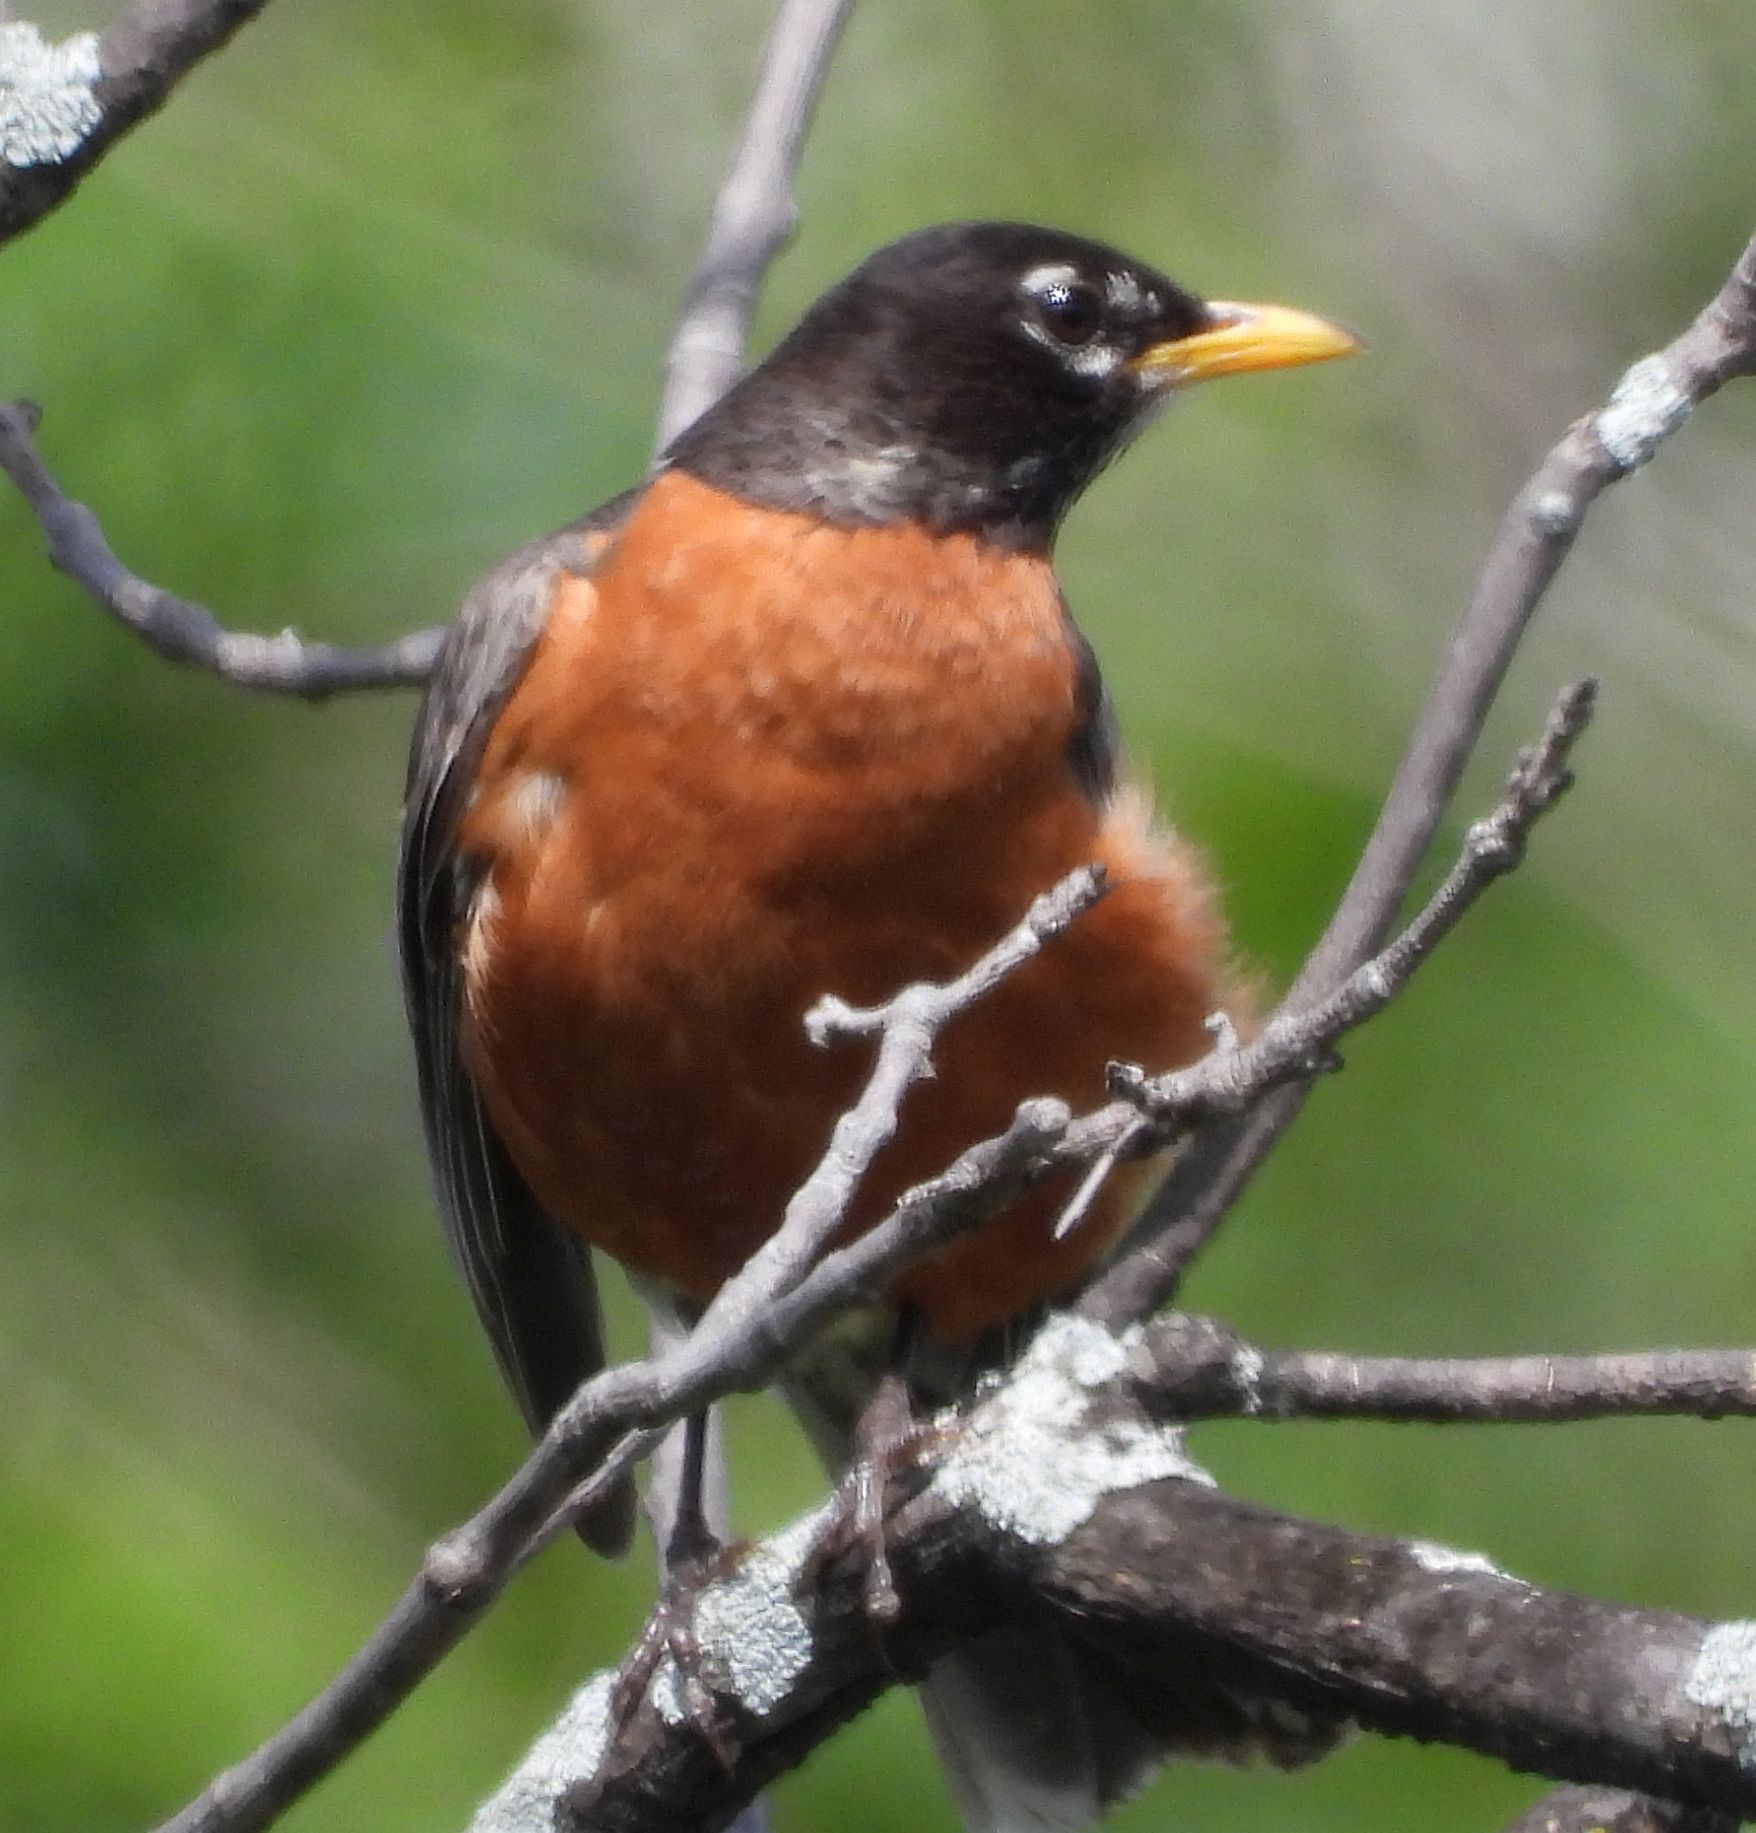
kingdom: Animalia
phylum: Chordata
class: Aves
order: Passeriformes
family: Turdidae
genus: Turdus
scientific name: Turdus migratorius
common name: American robin
